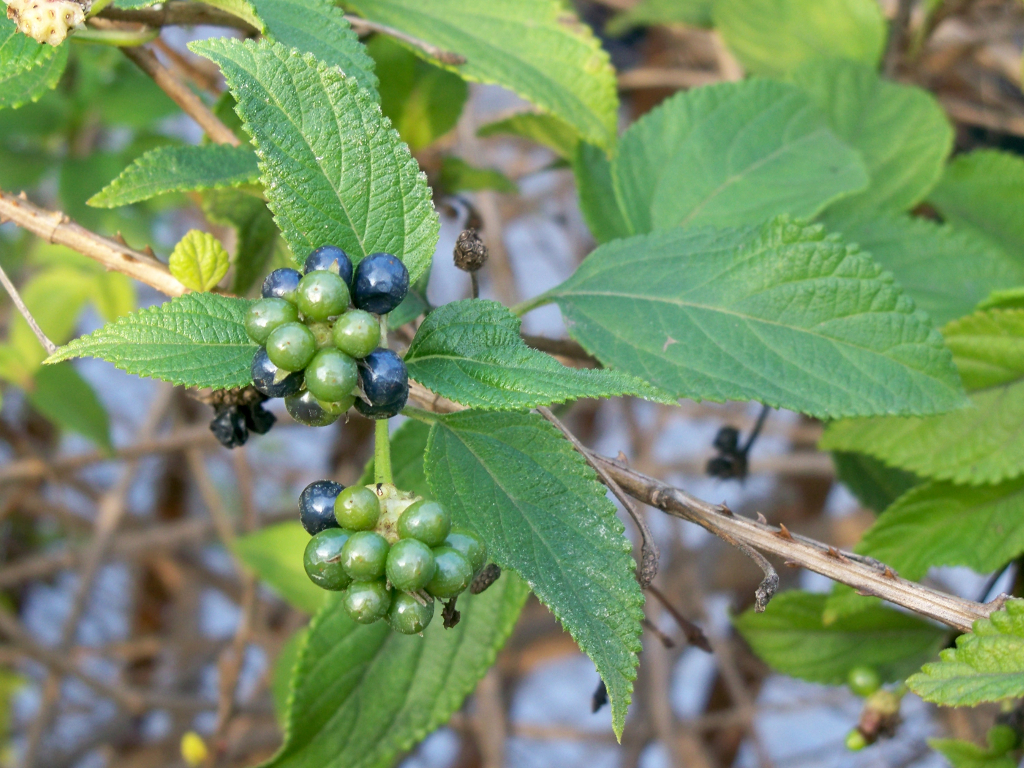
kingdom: Plantae
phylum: Tracheophyta
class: Magnoliopsida
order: Lamiales
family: Verbenaceae
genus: Lantana
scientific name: Lantana camara
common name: Lantana
